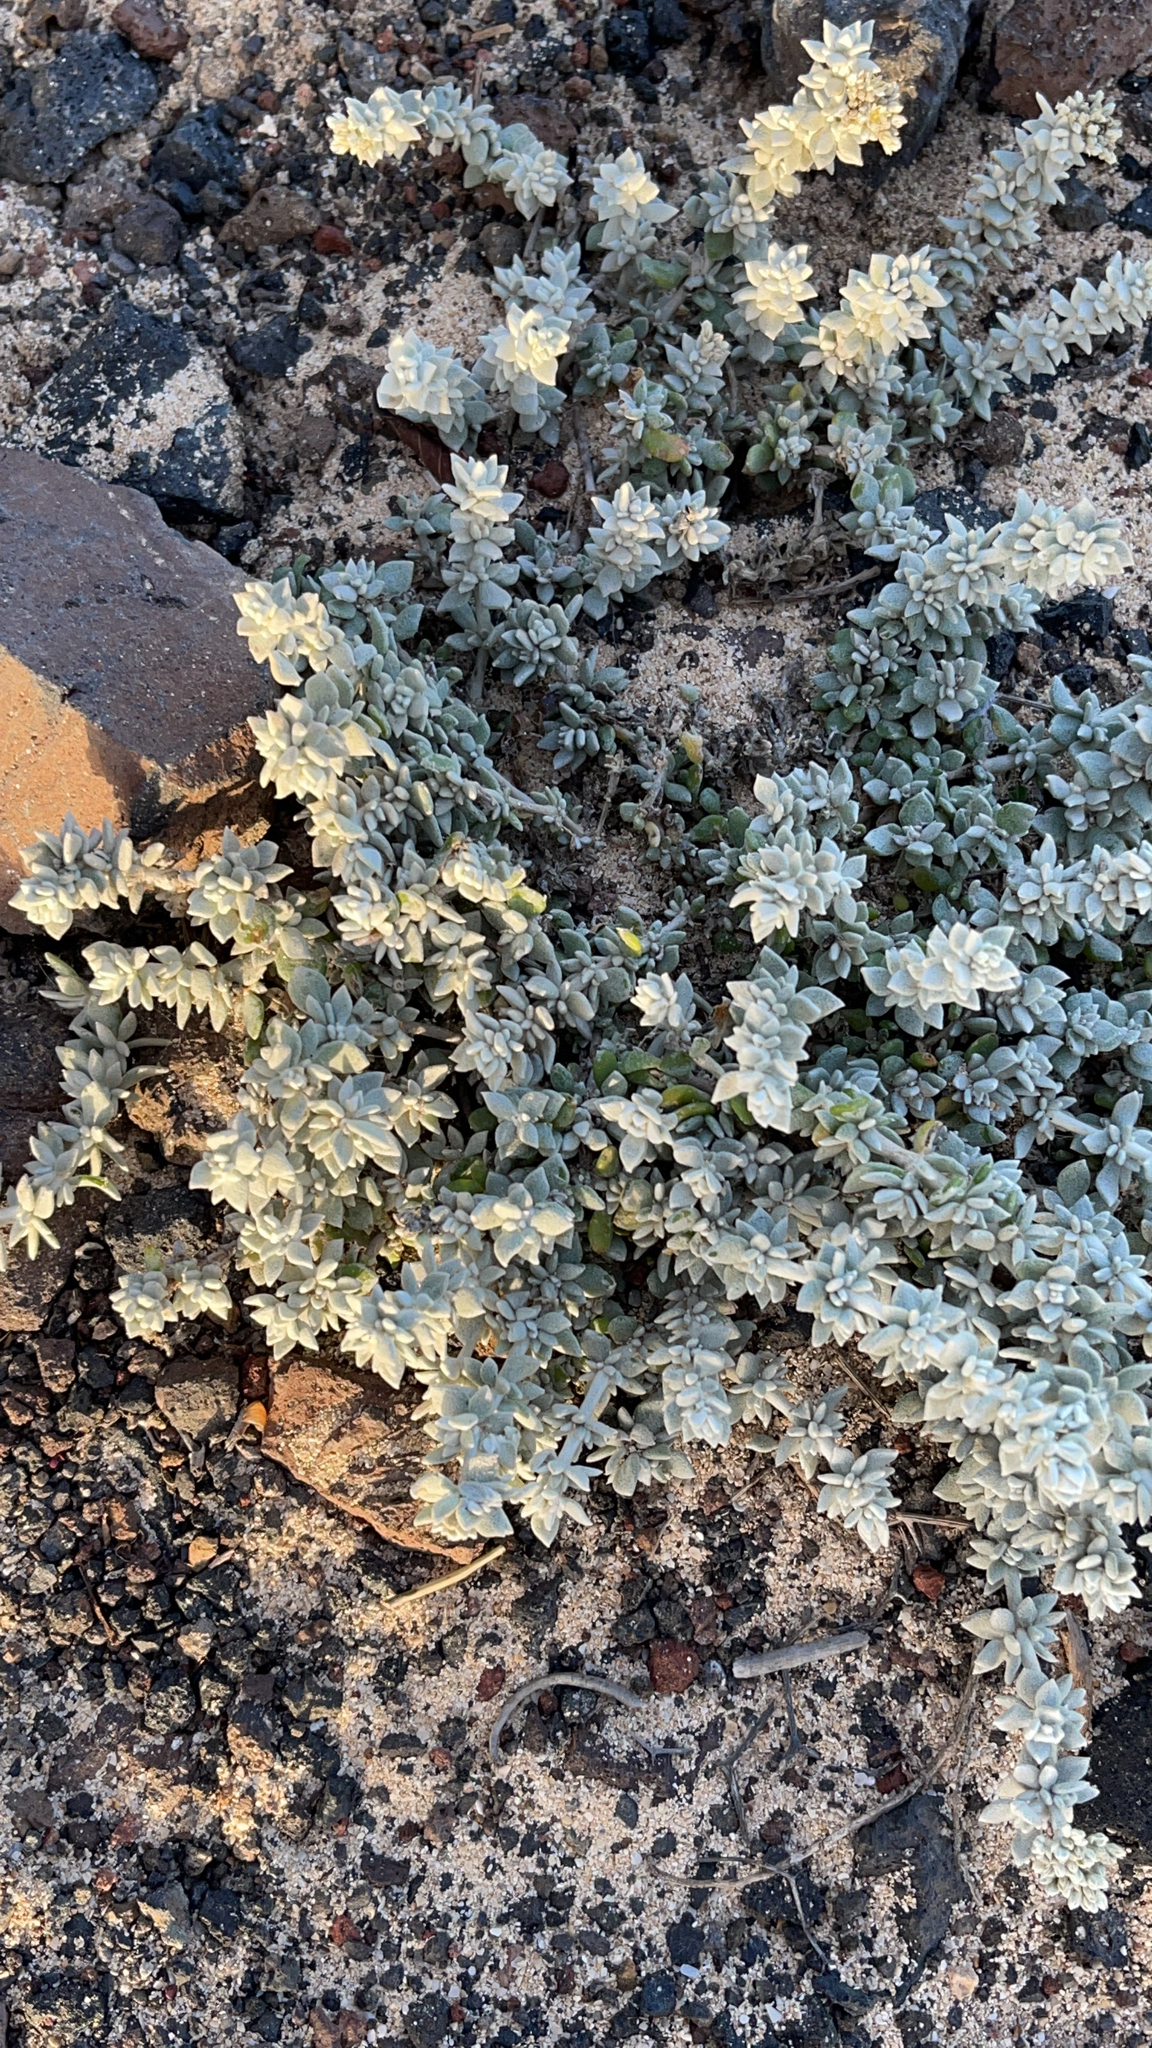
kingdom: Plantae
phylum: Tracheophyta
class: Magnoliopsida
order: Caryophyllales
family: Caryophyllaceae
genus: Polycarpaea
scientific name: Polycarpaea nivea
